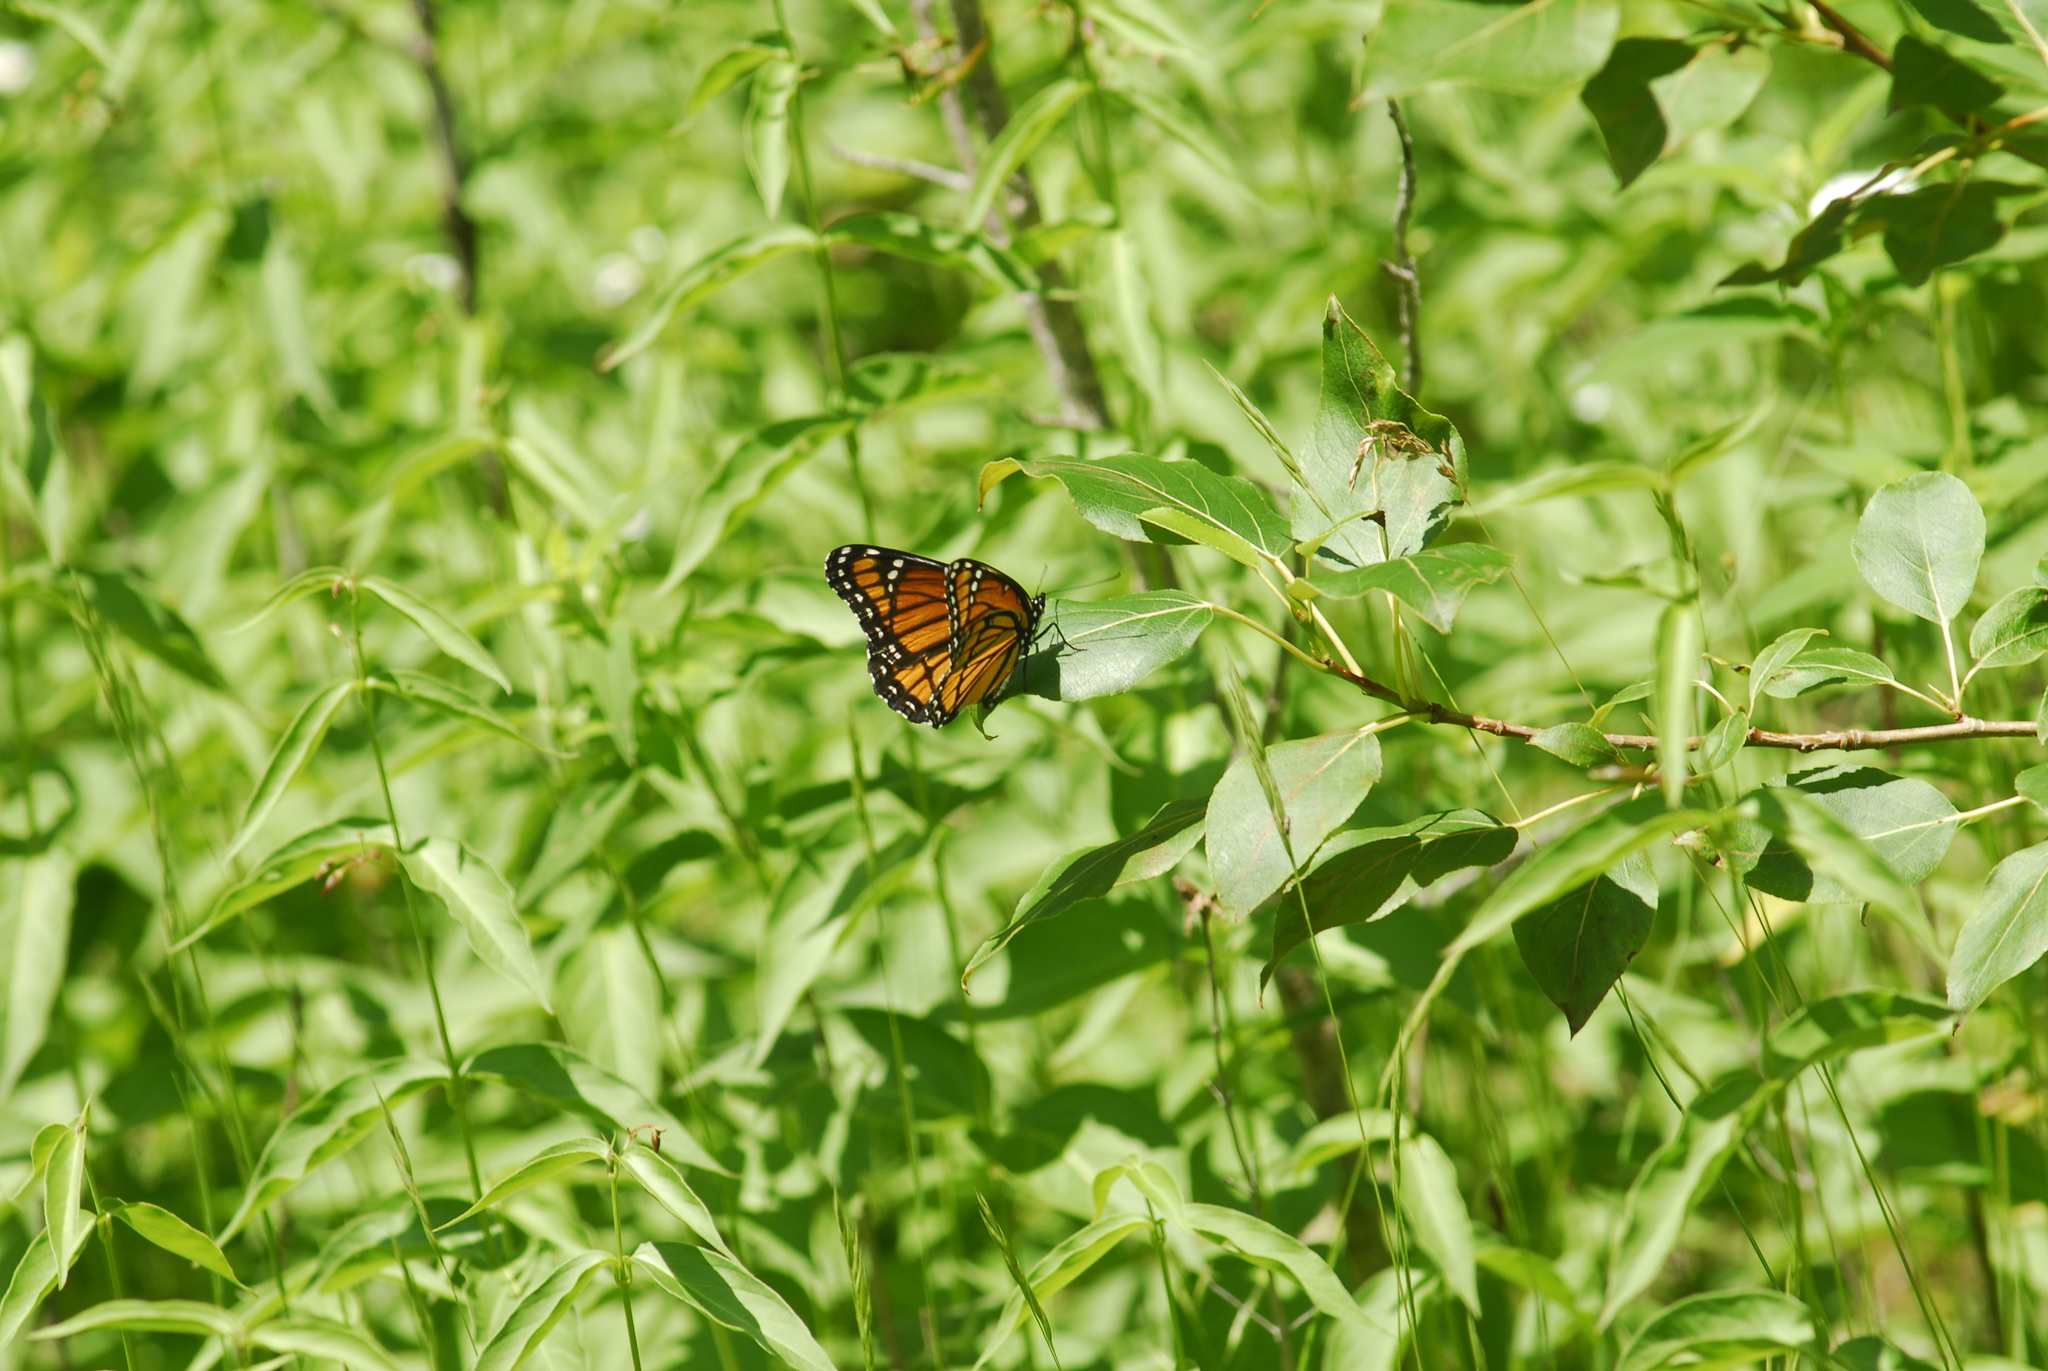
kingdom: Animalia
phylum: Arthropoda
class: Insecta
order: Lepidoptera
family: Nymphalidae
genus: Limenitis
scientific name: Limenitis archippus
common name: Viceroy
